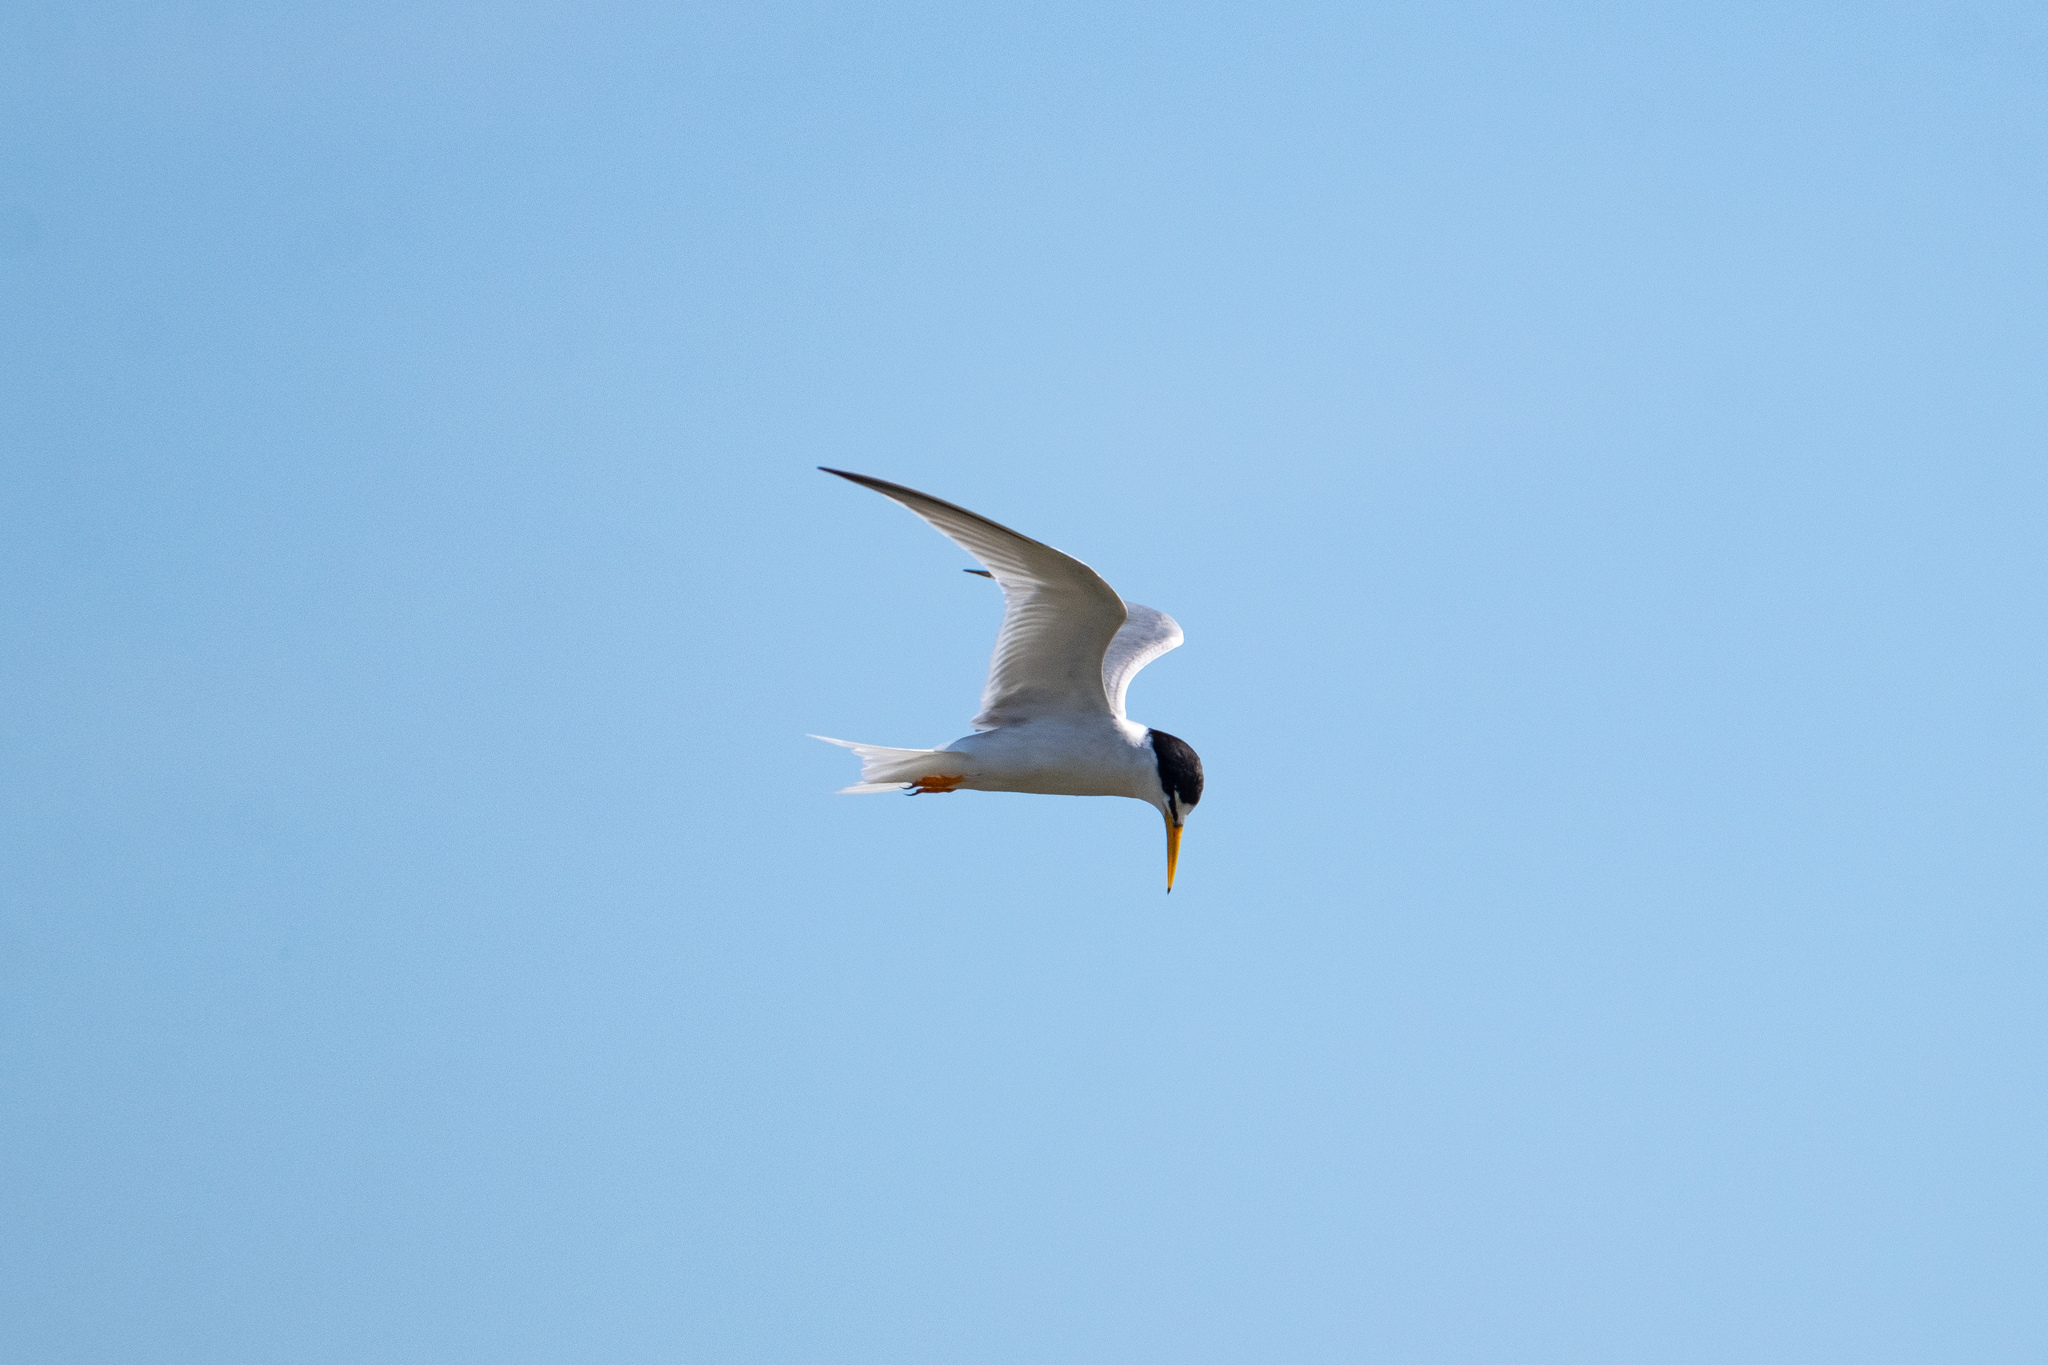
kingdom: Animalia
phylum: Chordata
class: Aves
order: Charadriiformes
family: Laridae
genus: Sternula
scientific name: Sternula albifrons
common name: Little tern
